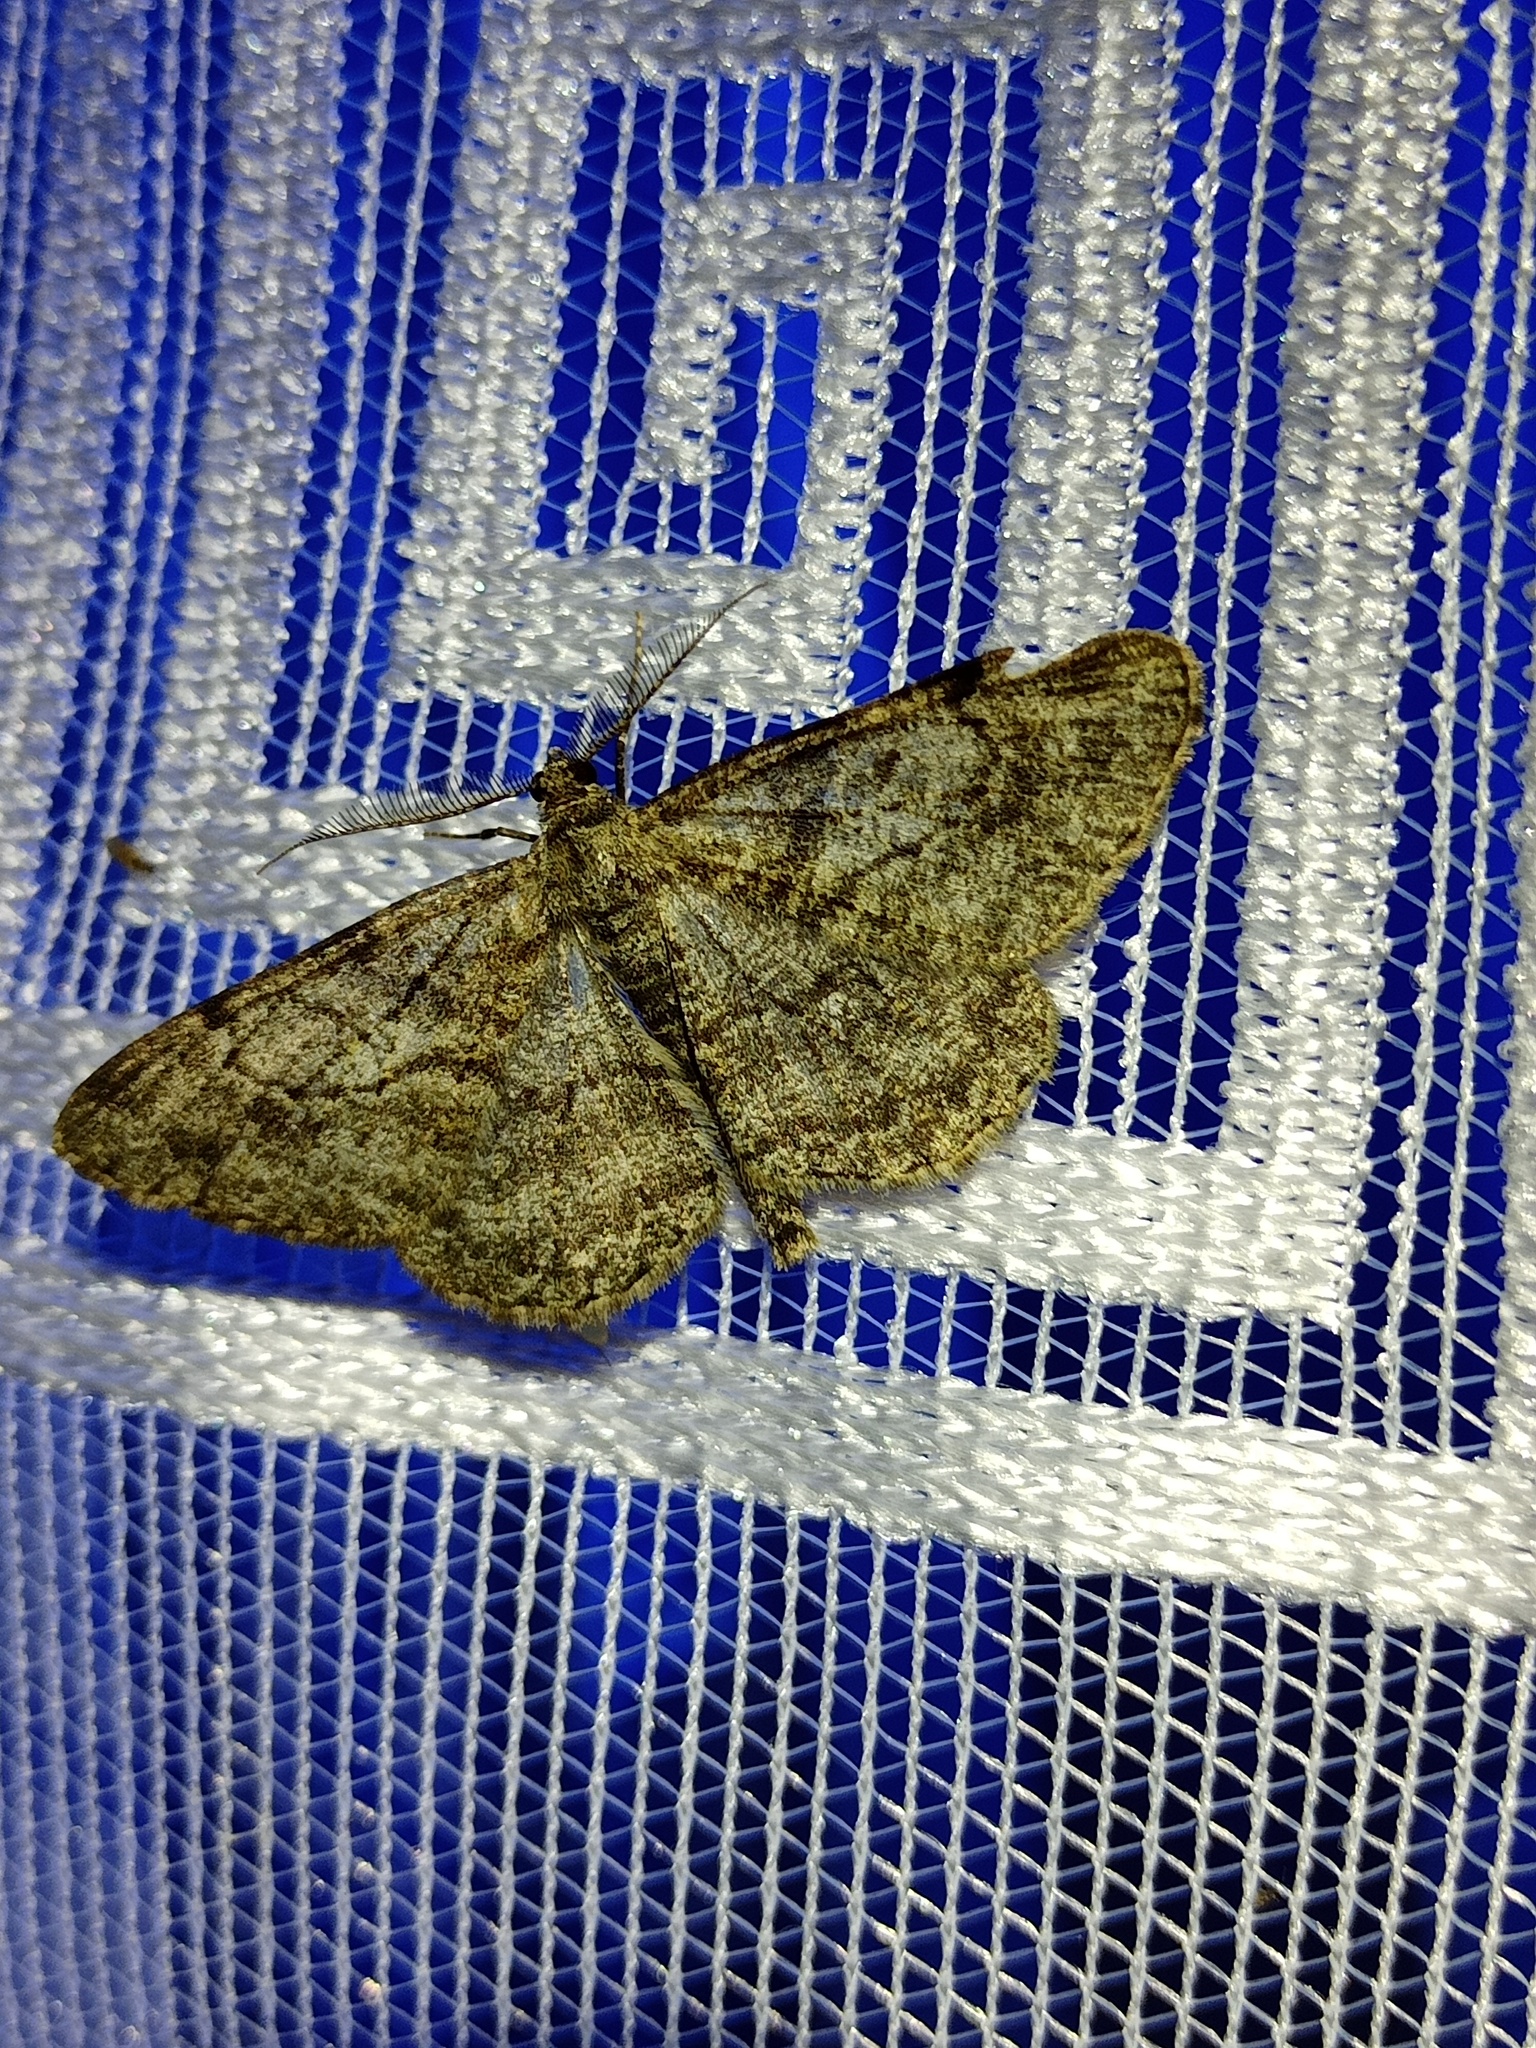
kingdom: Animalia
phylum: Arthropoda
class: Insecta
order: Lepidoptera
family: Geometridae
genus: Peribatodes
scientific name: Peribatodes rhomboidaria
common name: Willow beauty
